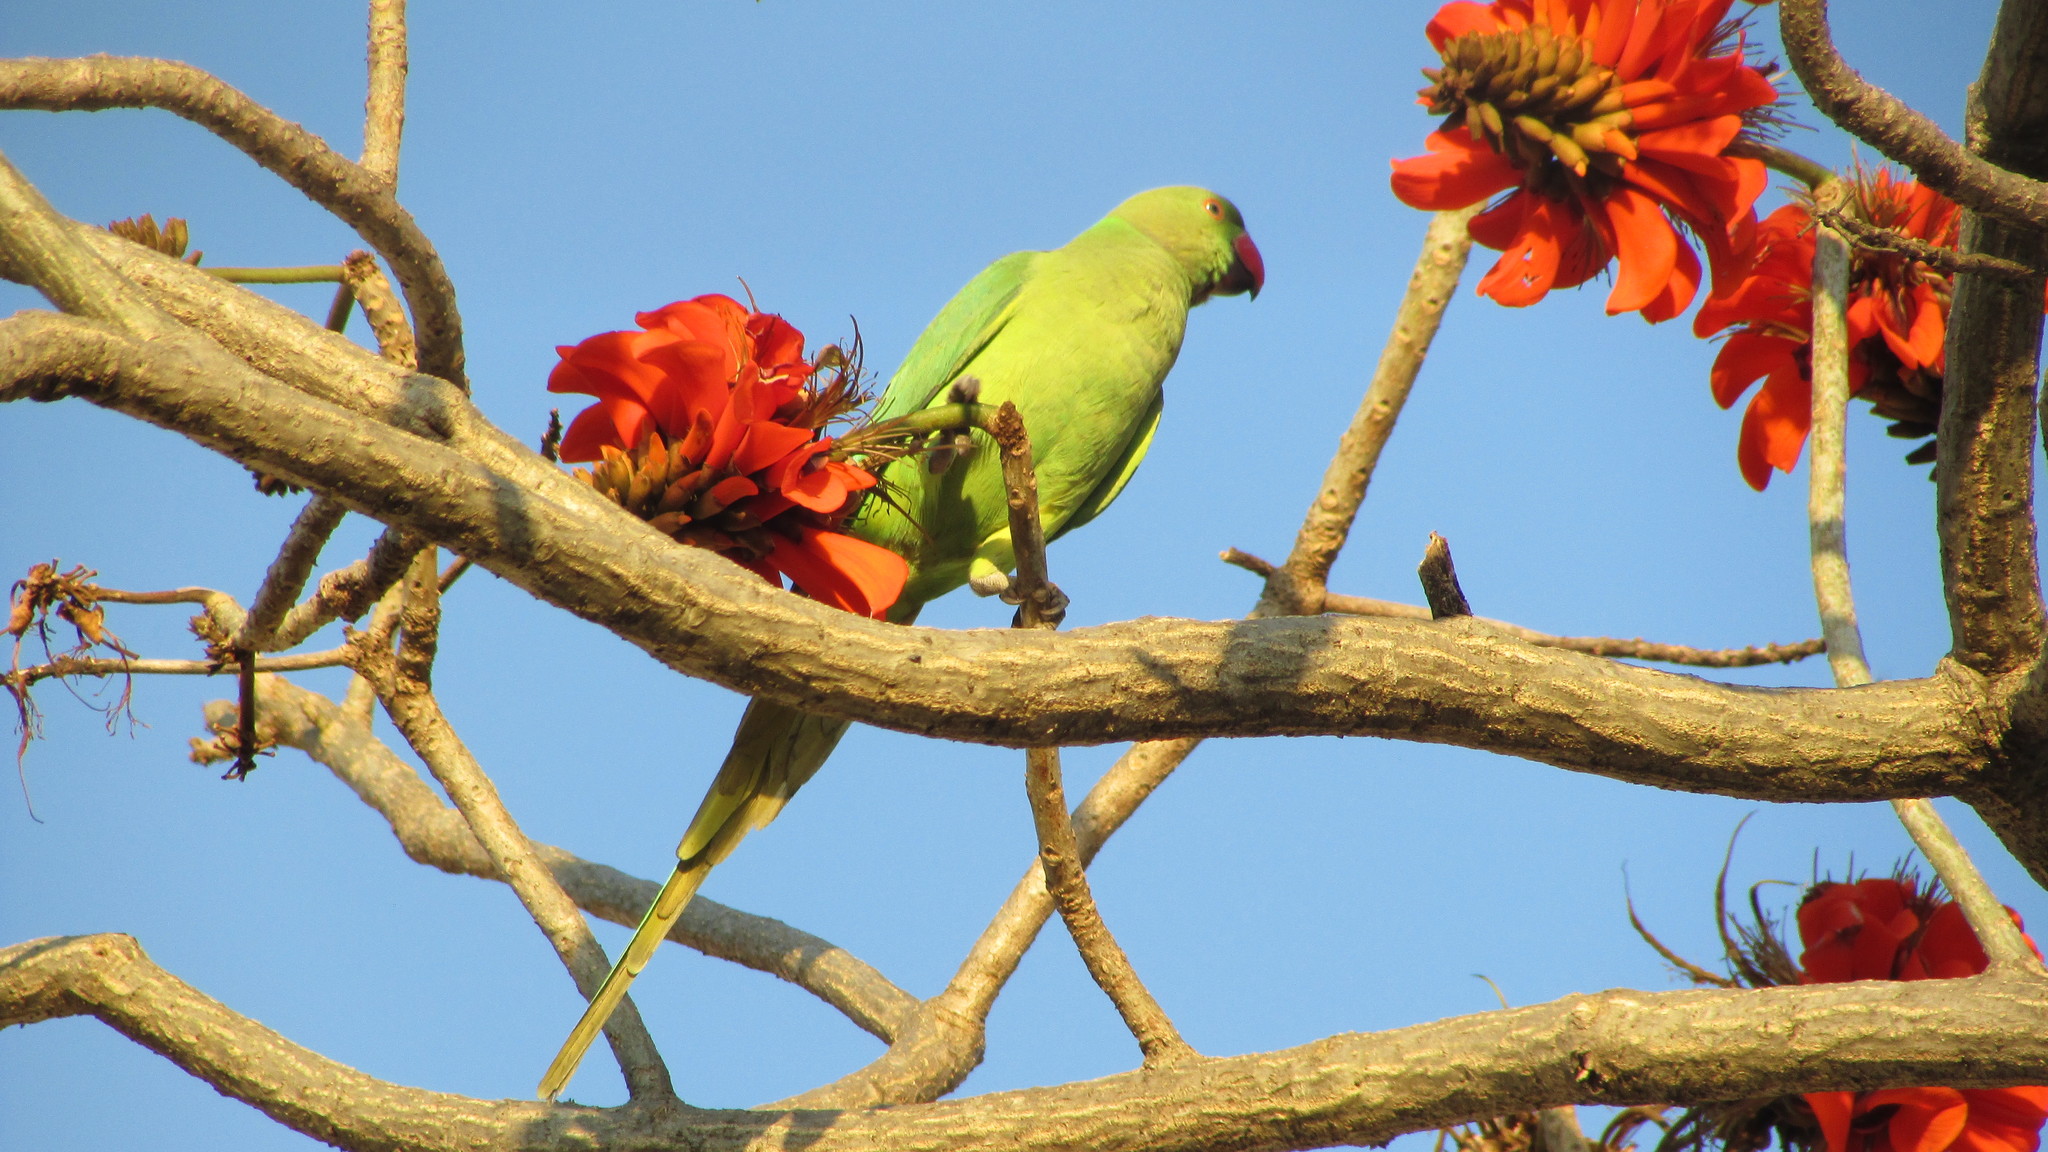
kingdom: Animalia
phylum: Chordata
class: Aves
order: Psittaciformes
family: Psittacidae
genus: Psittacula
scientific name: Psittacula krameri
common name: Rose-ringed parakeet
